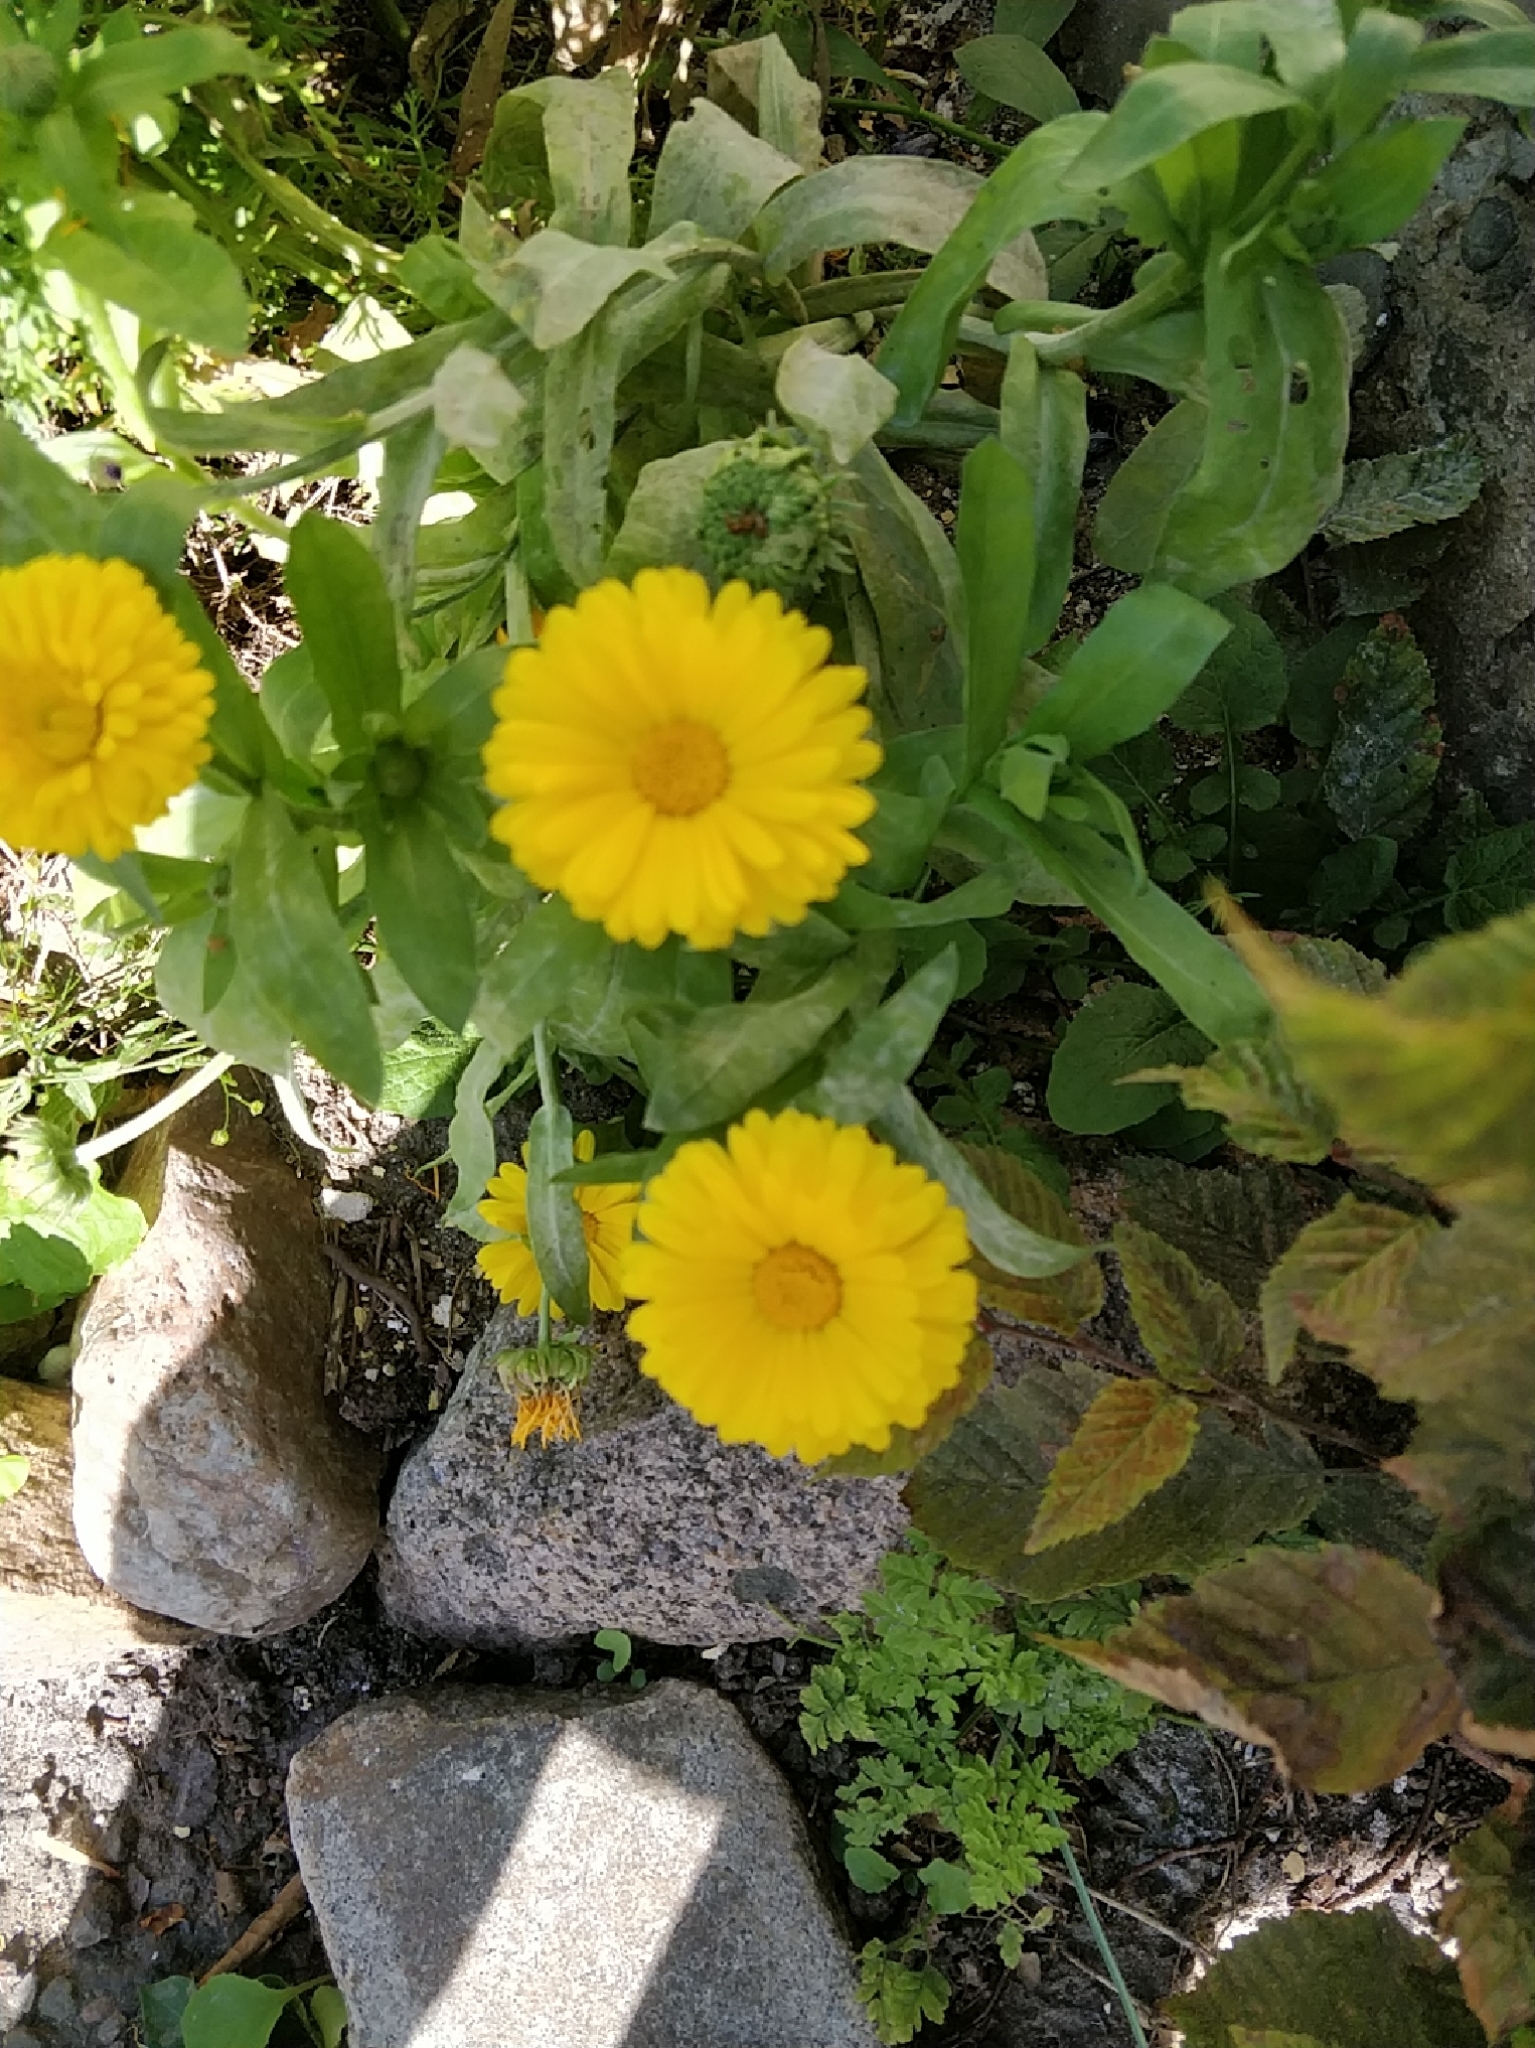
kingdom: Plantae
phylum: Tracheophyta
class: Magnoliopsida
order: Asterales
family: Asteraceae
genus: Calendula
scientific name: Calendula officinalis
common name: Pot marigold
